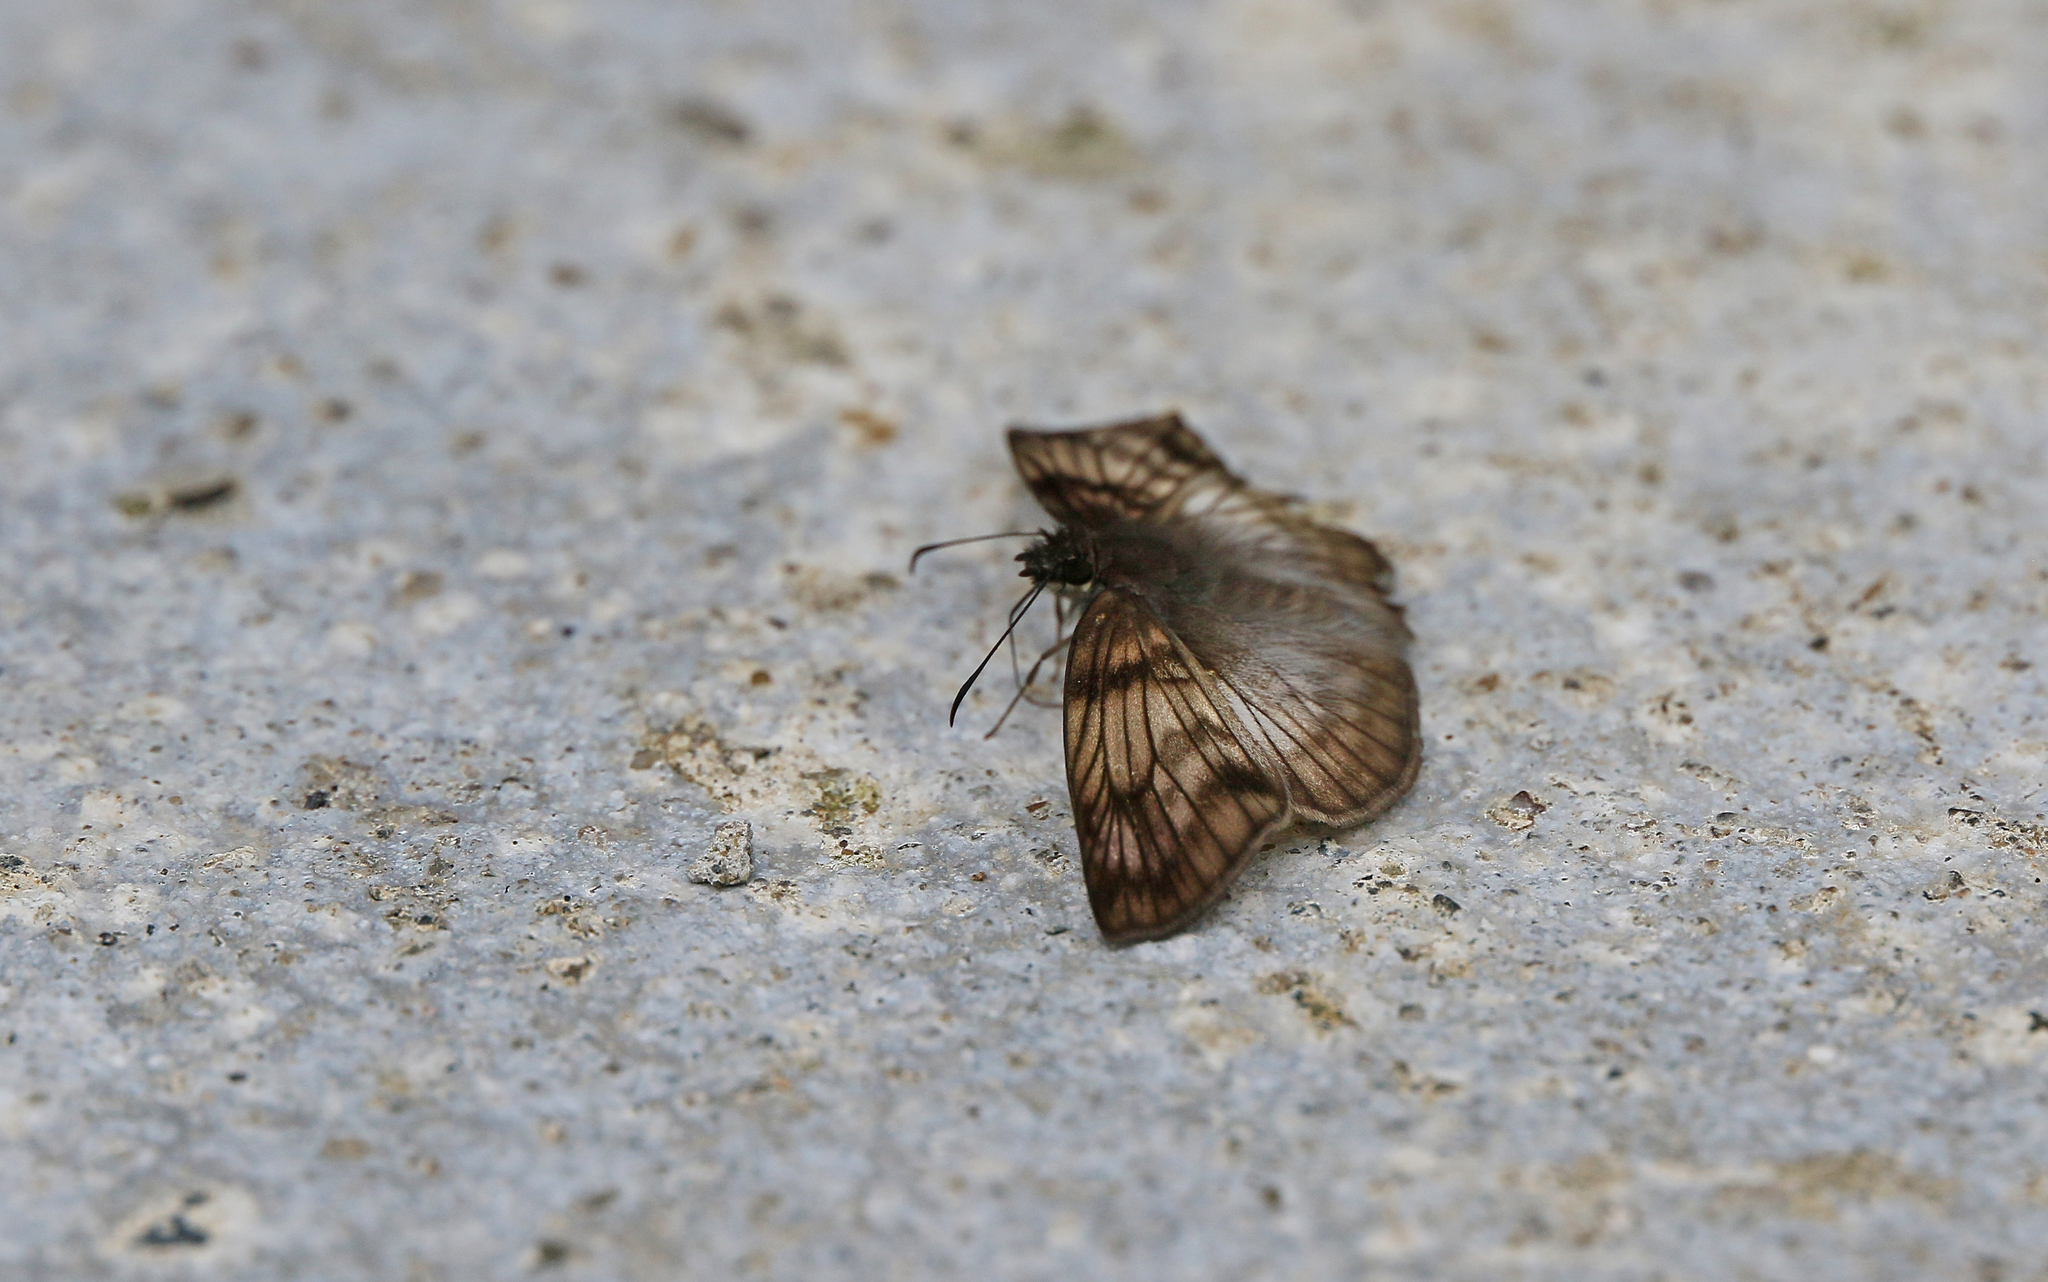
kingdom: Animalia
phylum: Arthropoda
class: Insecta
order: Lepidoptera
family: Hesperiidae
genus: Mylon
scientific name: Mylon cajus
